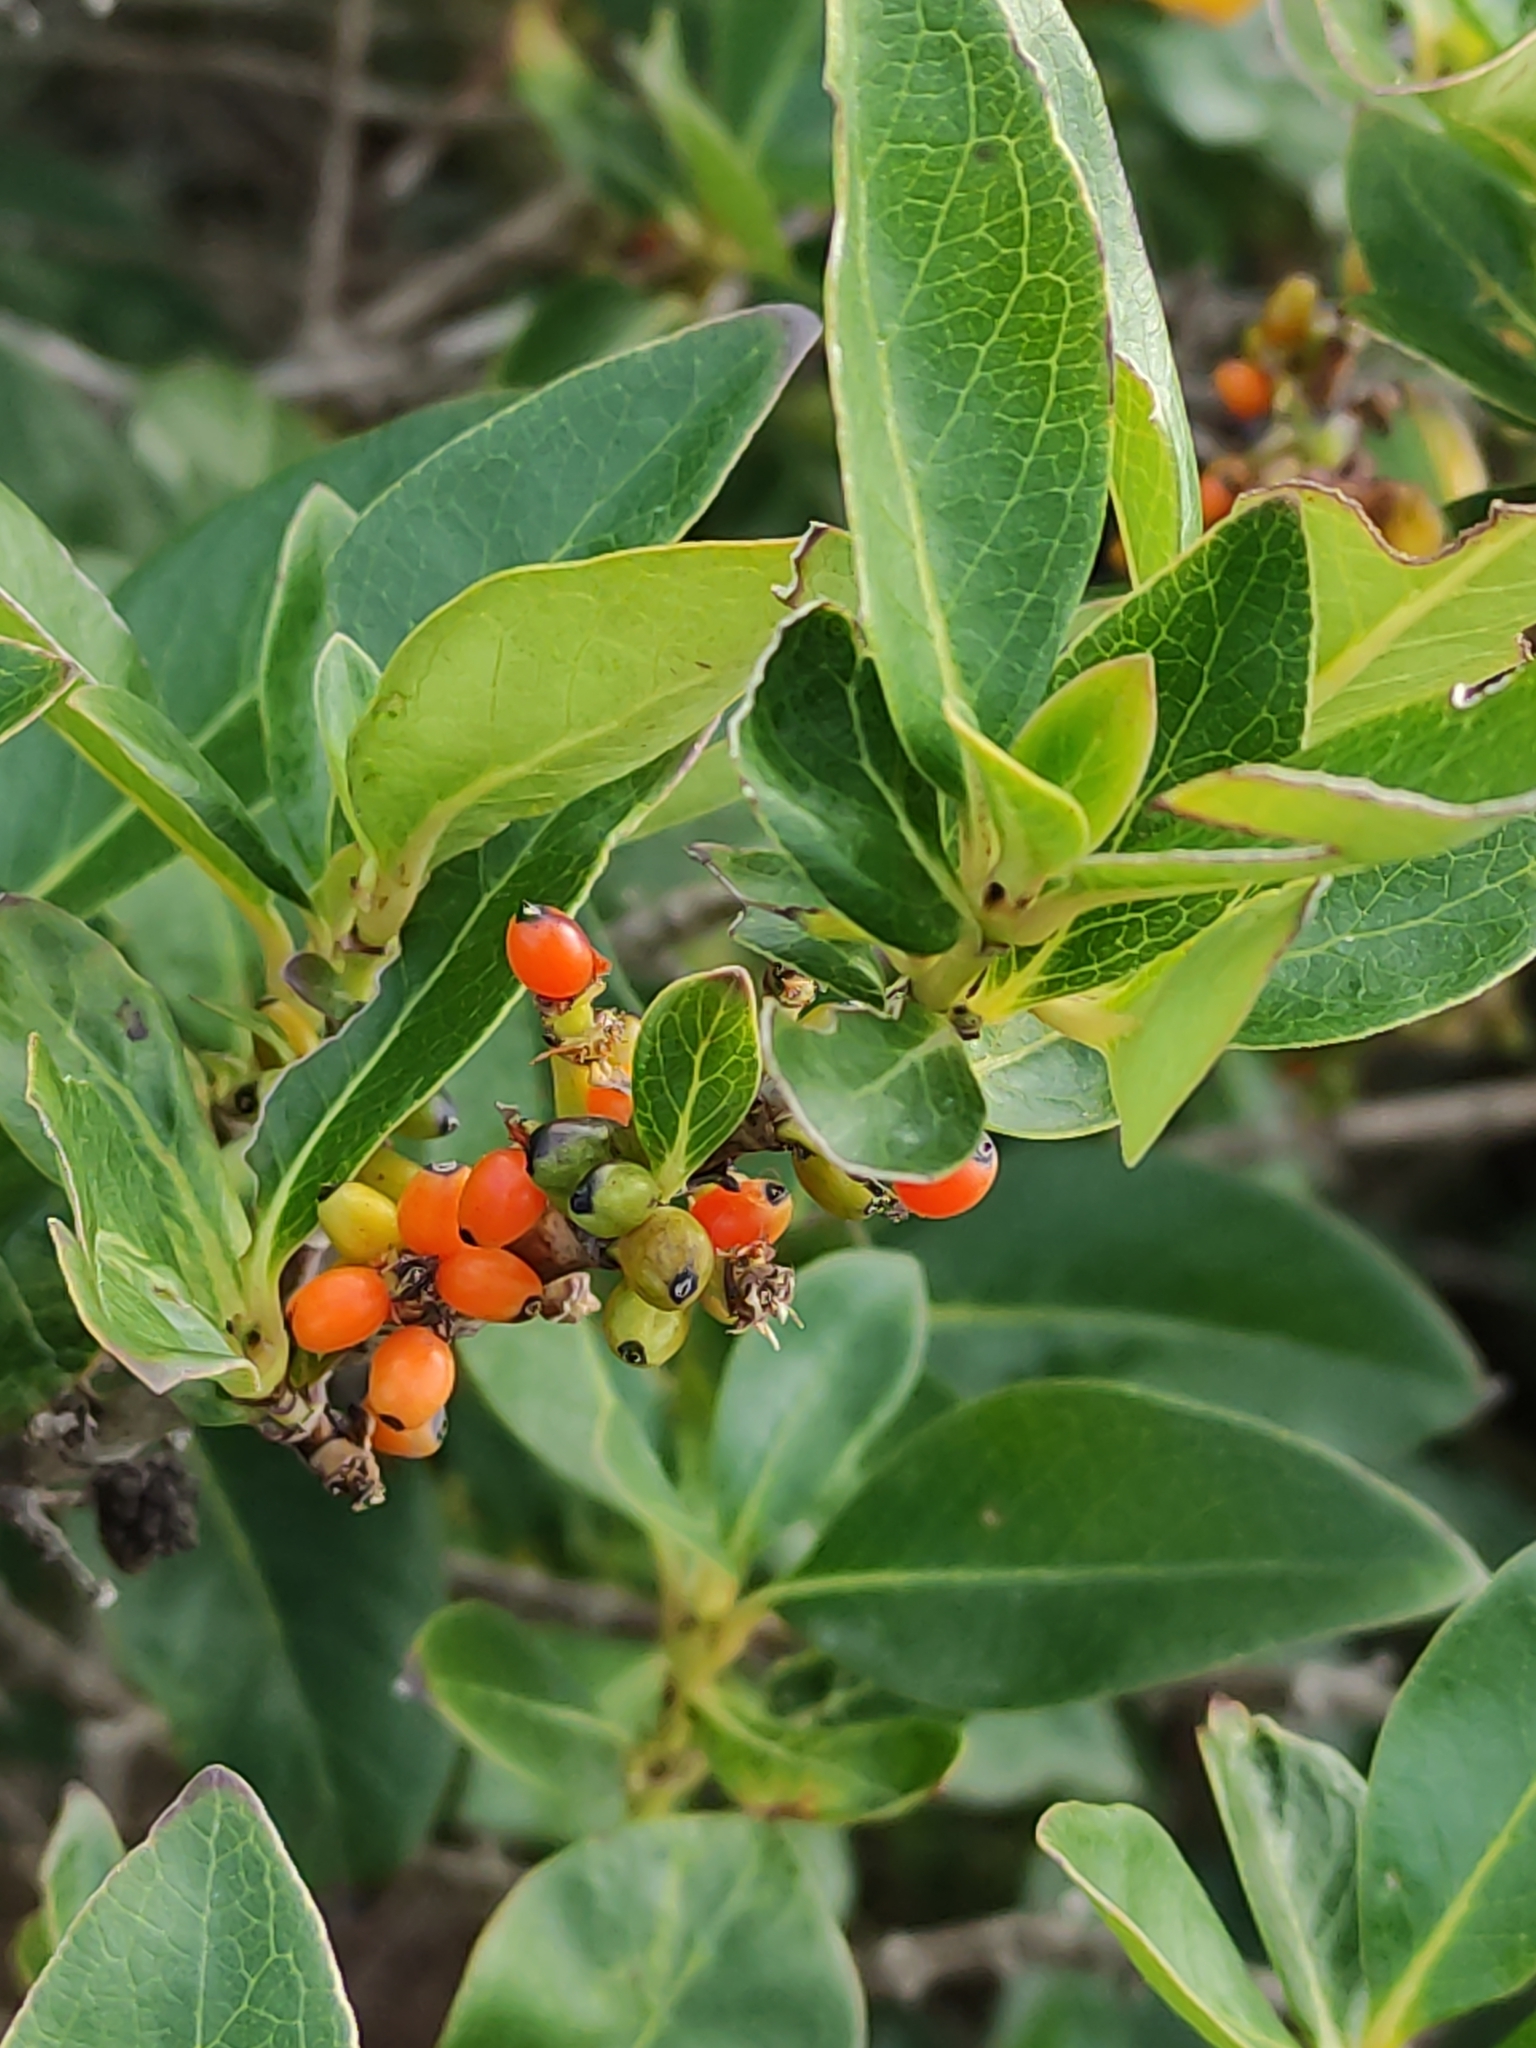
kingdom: Plantae
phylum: Tracheophyta
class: Magnoliopsida
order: Gentianales
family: Rubiaceae
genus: Coprosma
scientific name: Coprosma robusta
